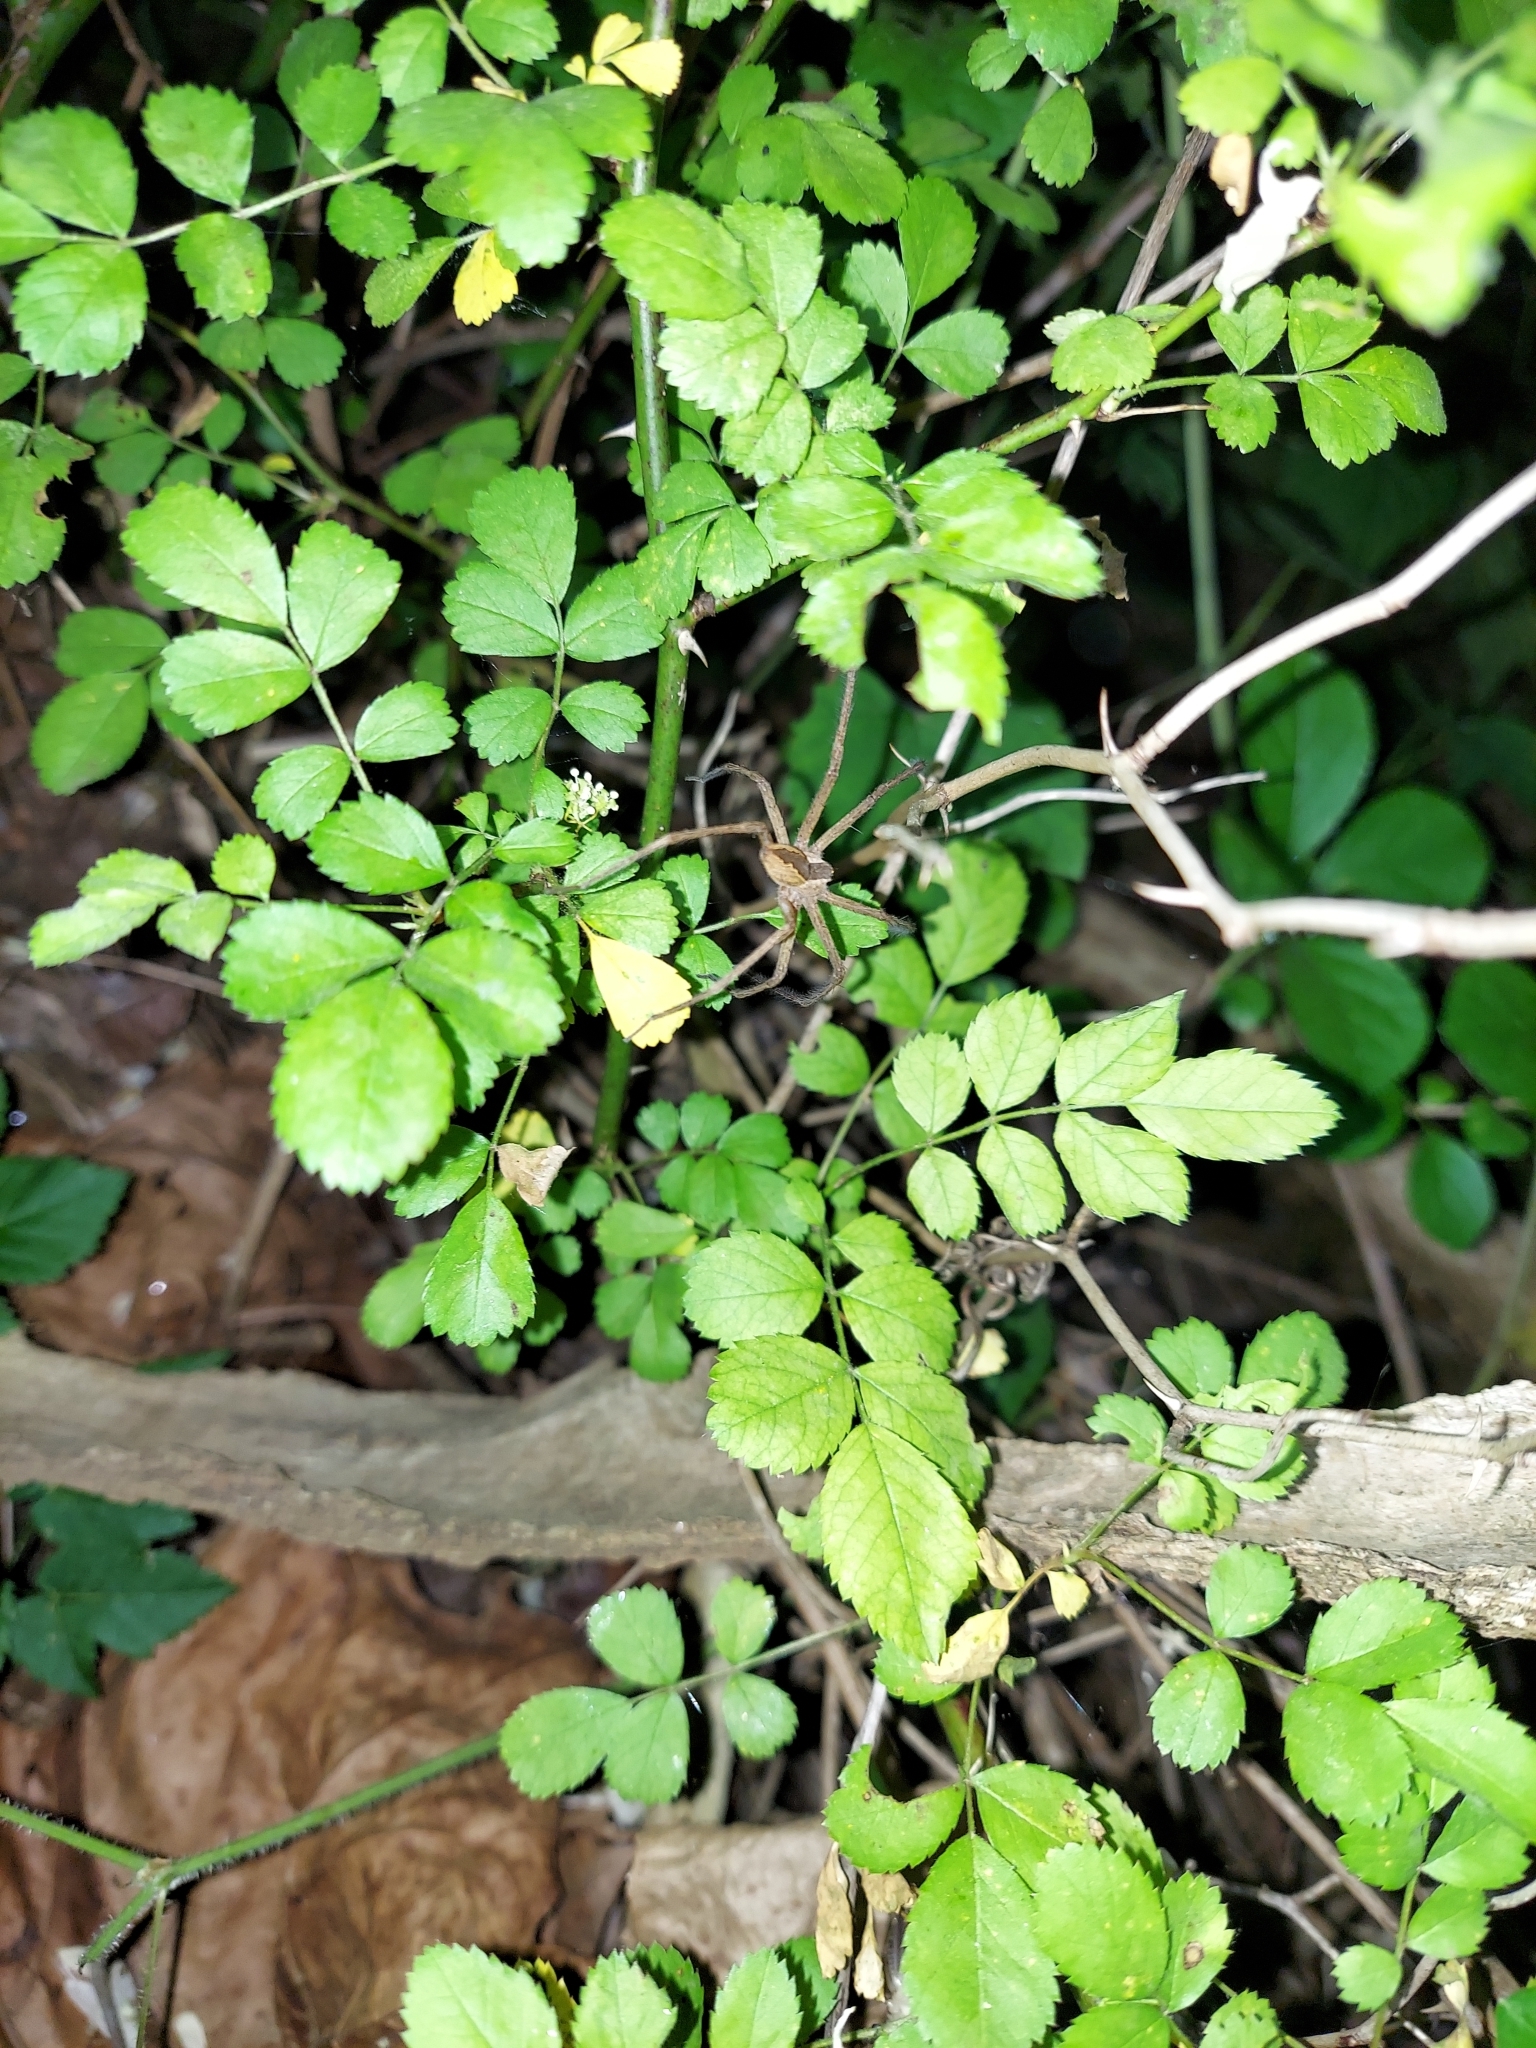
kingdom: Animalia
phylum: Arthropoda
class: Arachnida
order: Araneae
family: Pisauridae
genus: Pisaurina
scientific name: Pisaurina mira
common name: American nursery web spider
